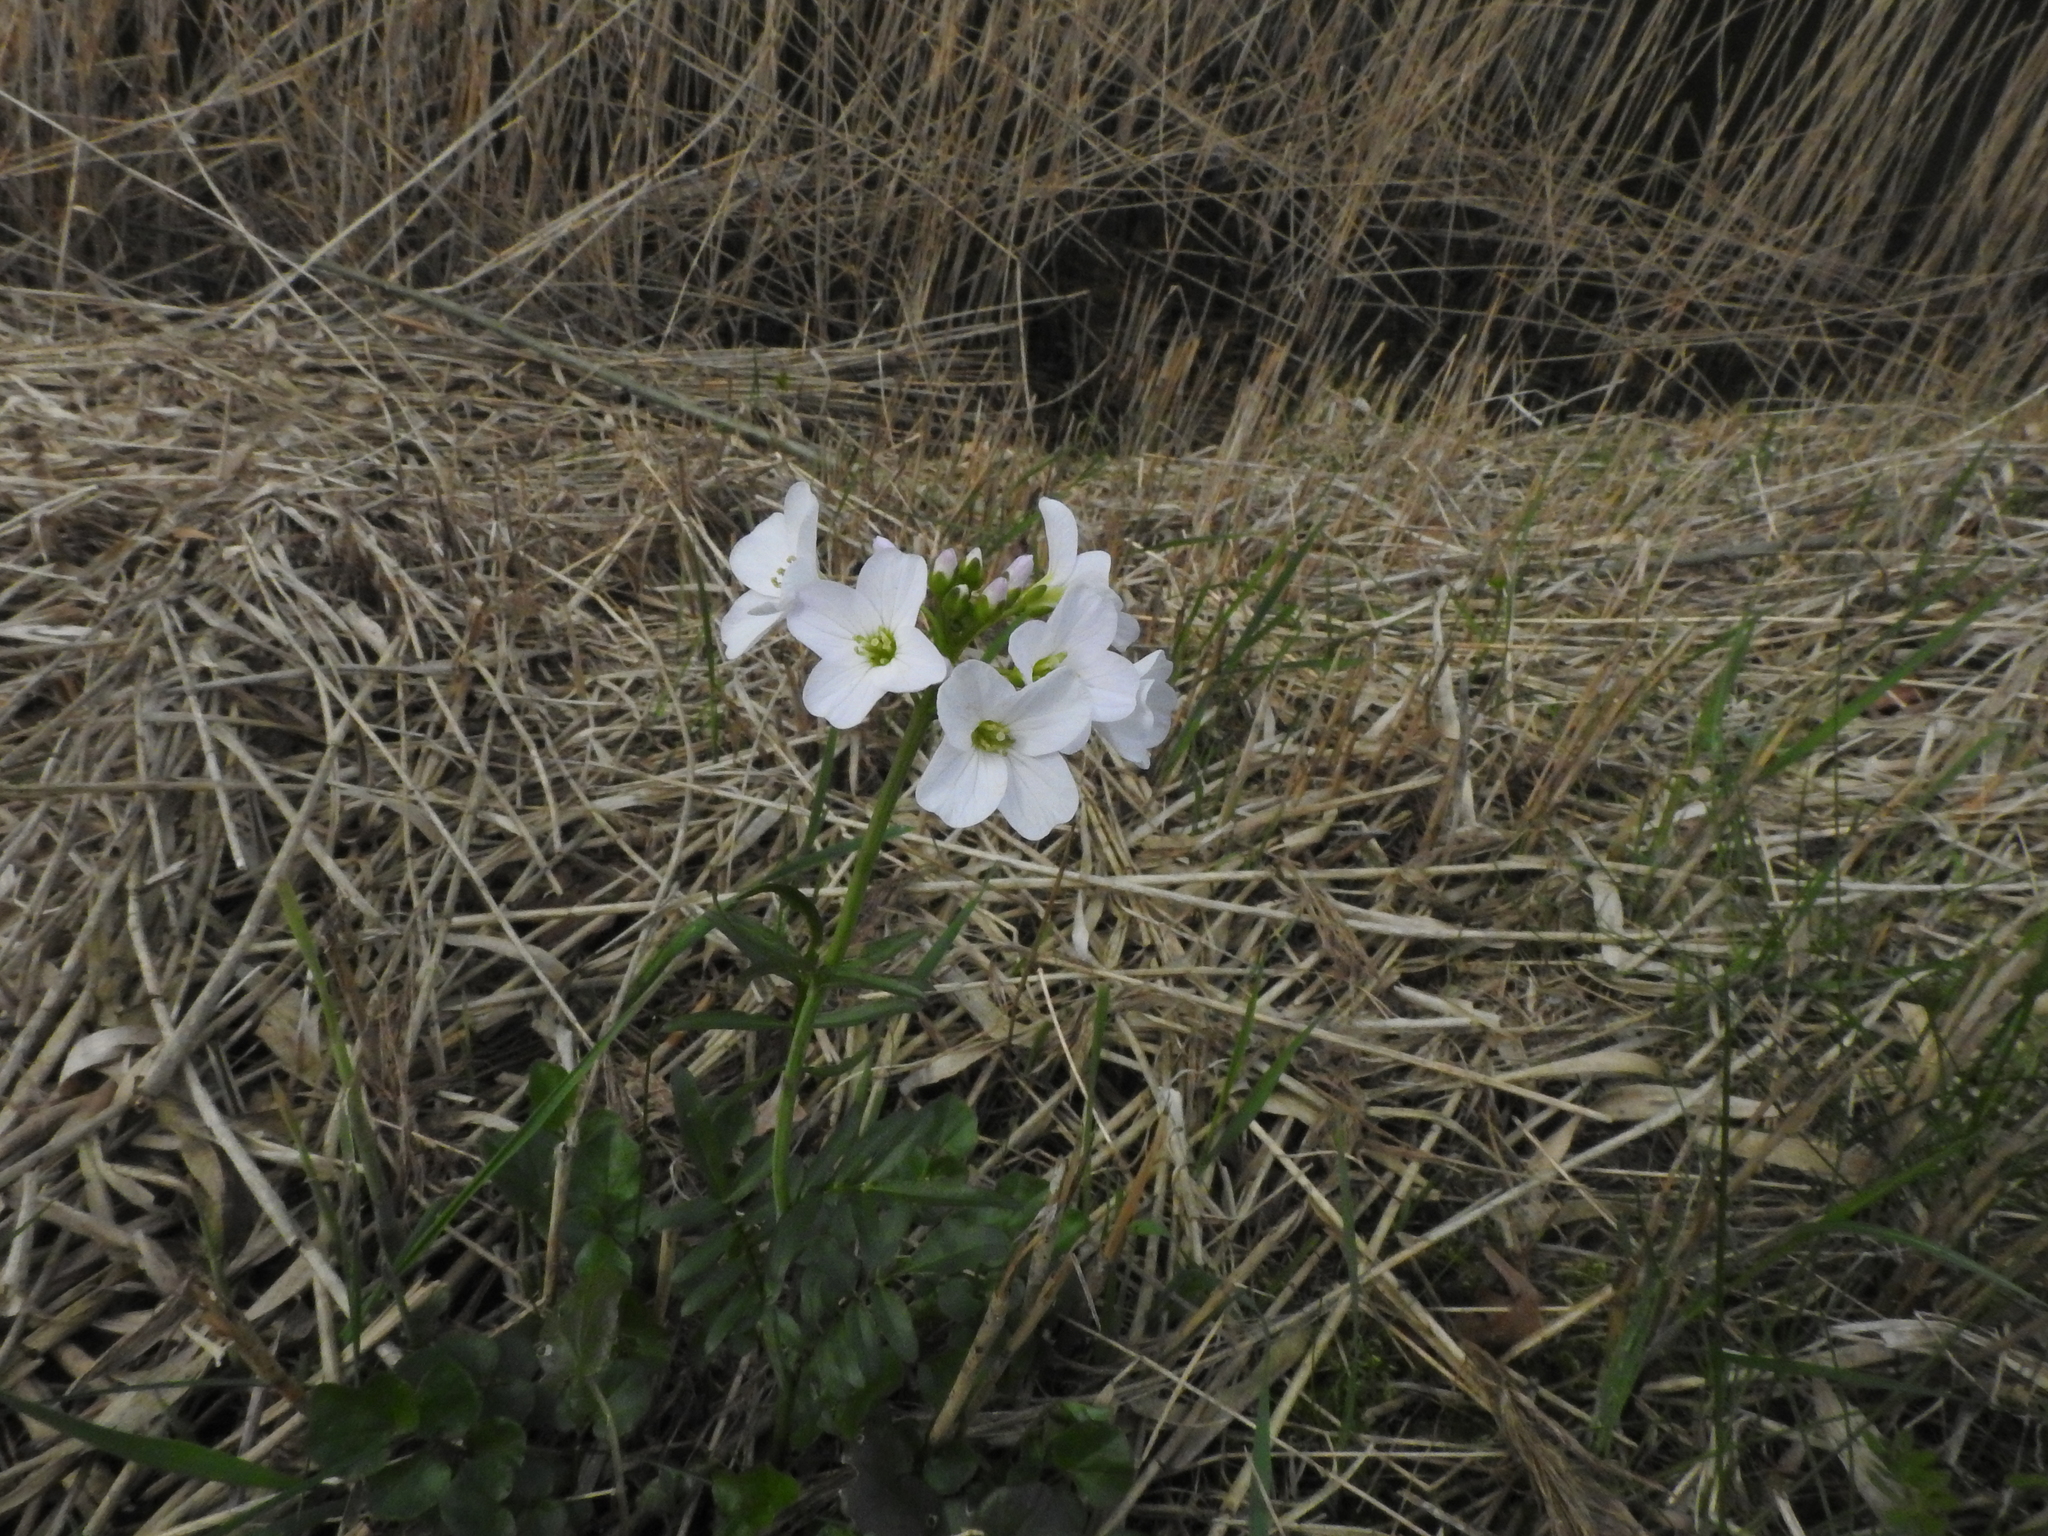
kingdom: Plantae
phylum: Tracheophyta
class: Magnoliopsida
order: Brassicales
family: Brassicaceae
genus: Cardamine
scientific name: Cardamine pratensis
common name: Cuckoo flower
